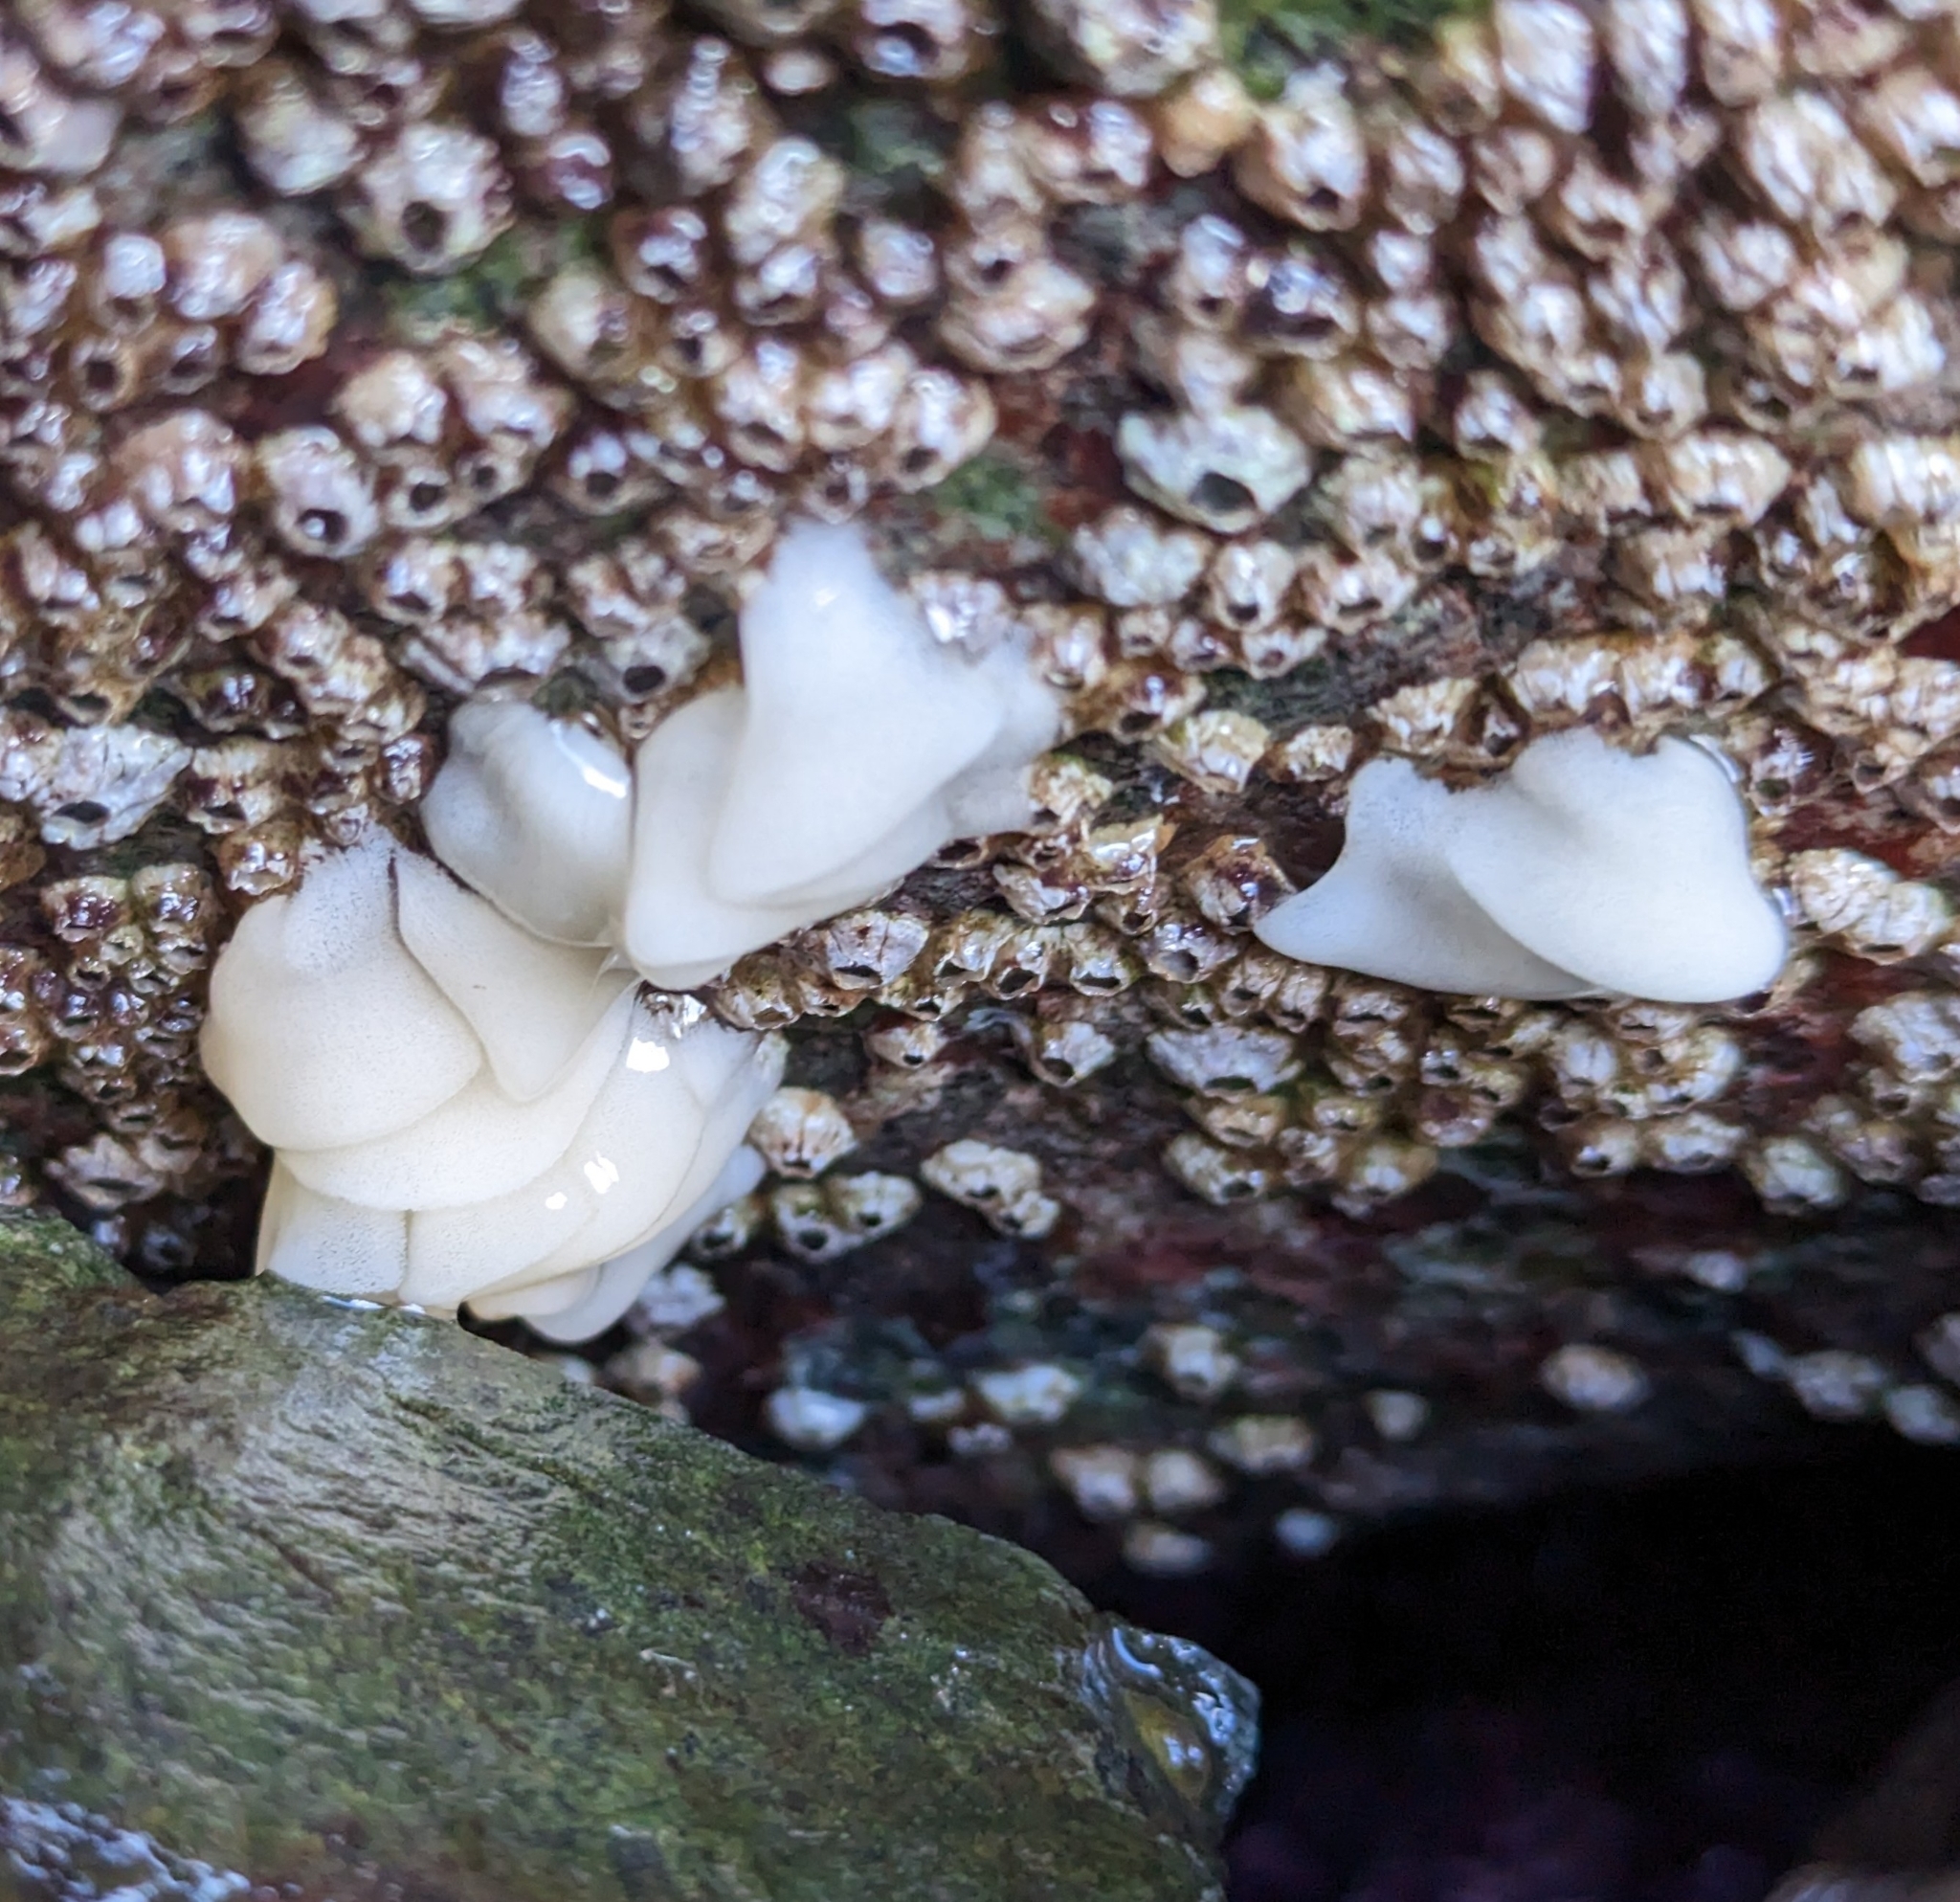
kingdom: Animalia
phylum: Mollusca
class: Gastropoda
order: Nudibranchia
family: Onchidorididae
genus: Onchidoris
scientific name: Onchidoris bilamellata
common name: Barnacle-eating onchidoris
